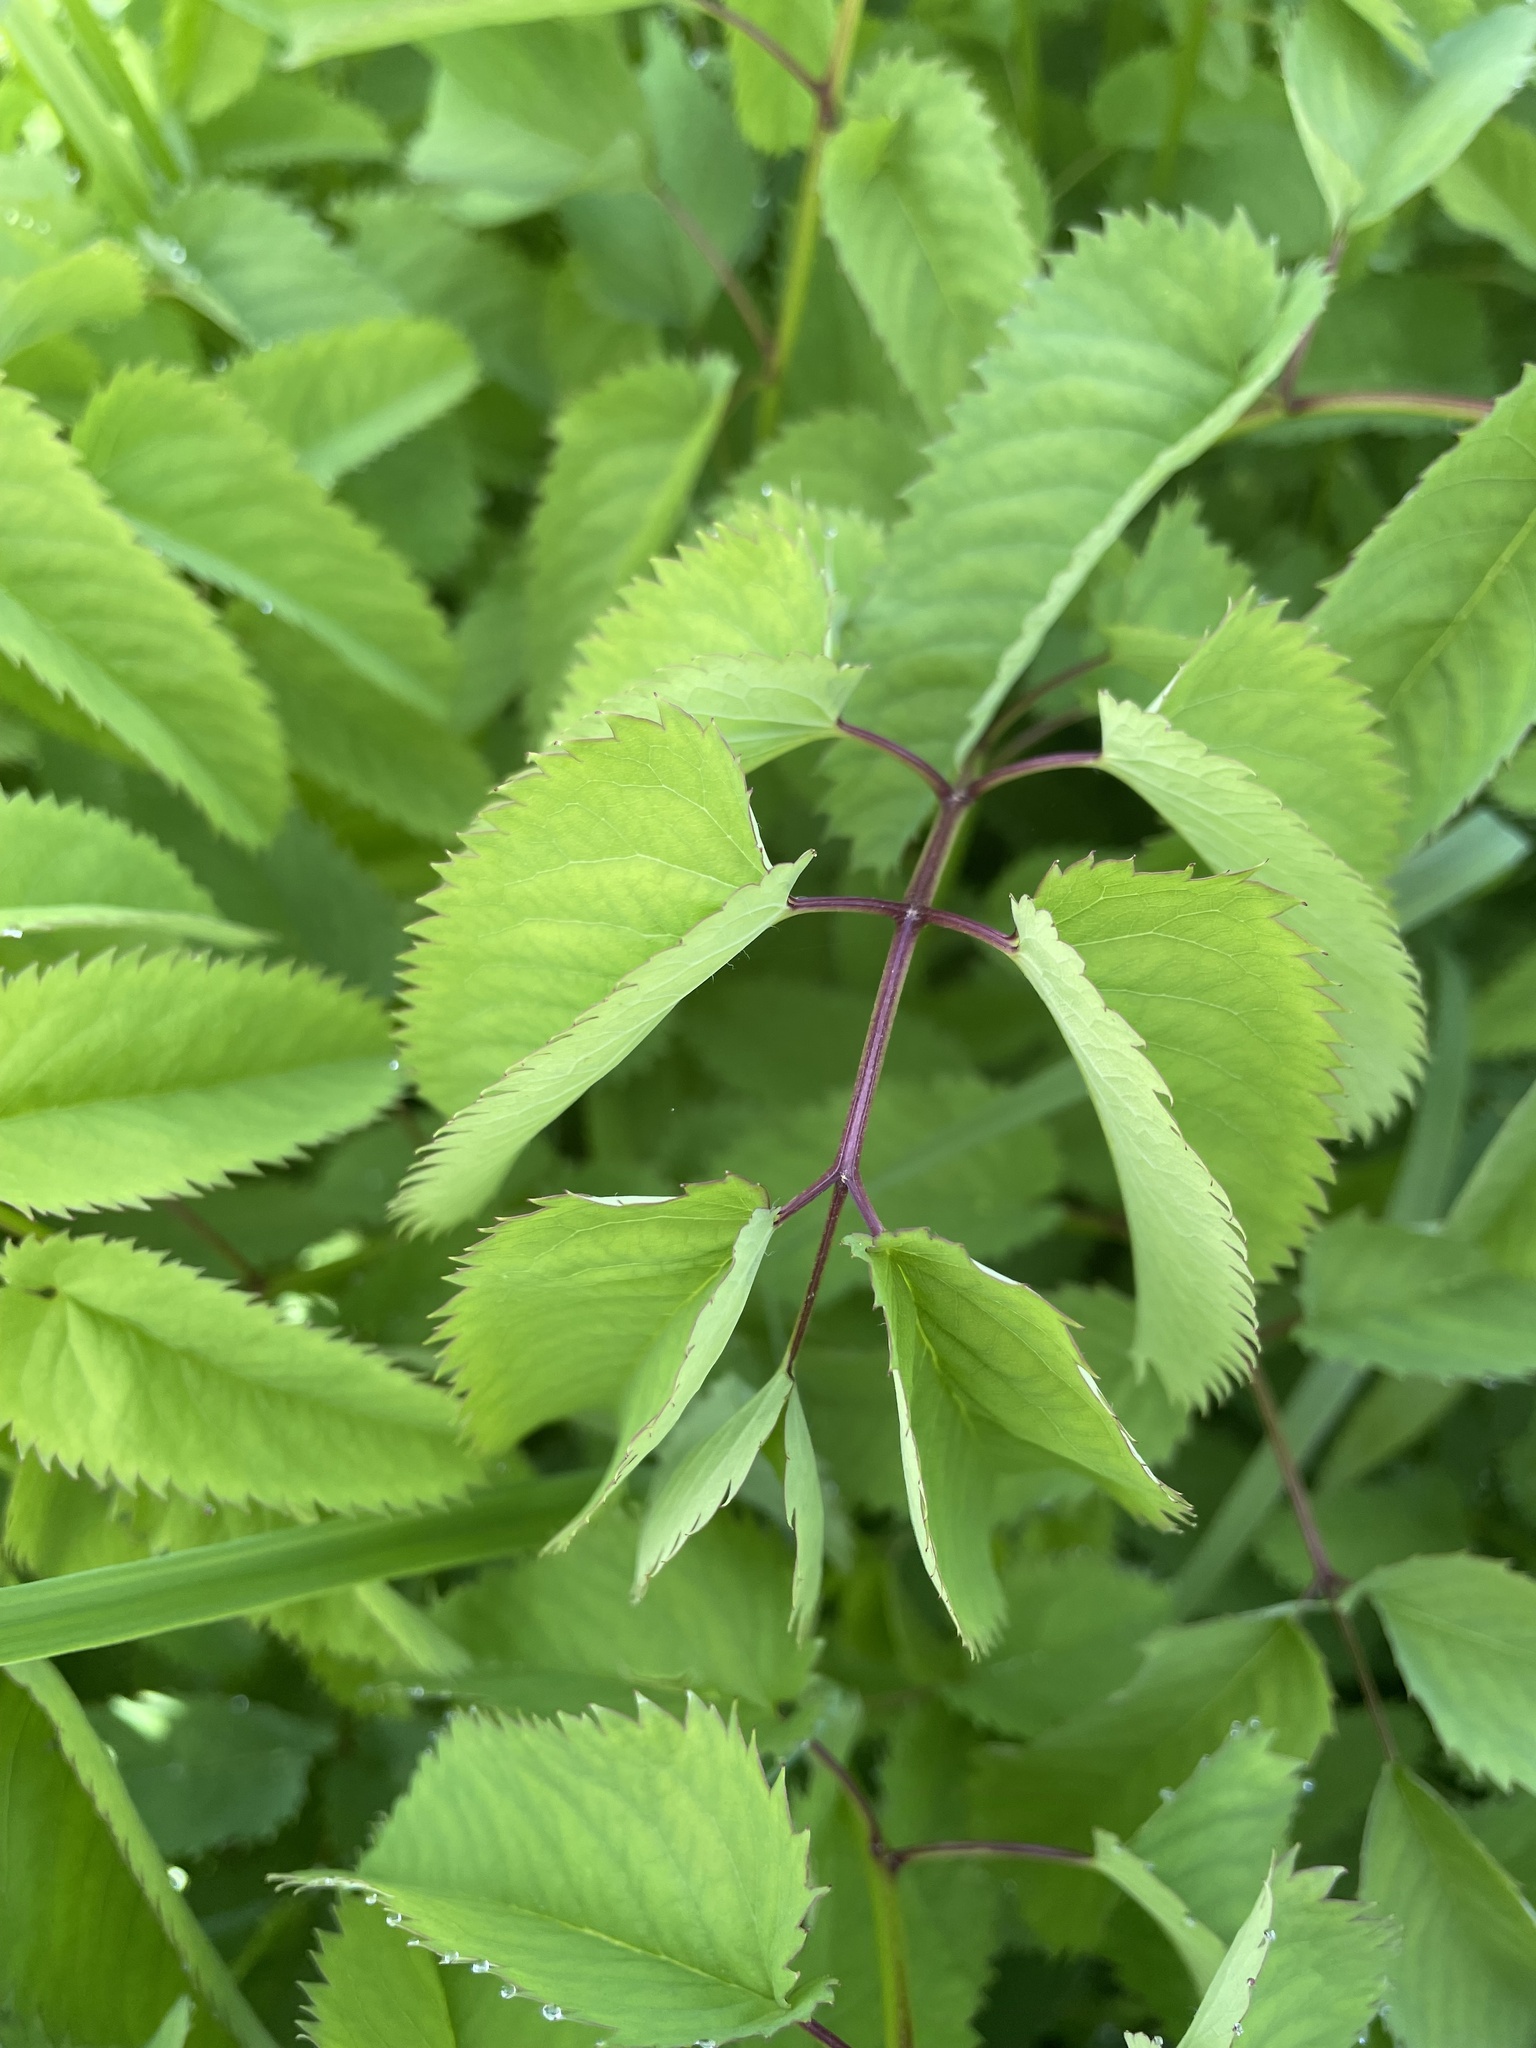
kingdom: Plantae
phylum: Tracheophyta
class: Magnoliopsida
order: Rosales
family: Rosaceae
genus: Sanguisorba
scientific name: Sanguisorba canadensis
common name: White burnet
